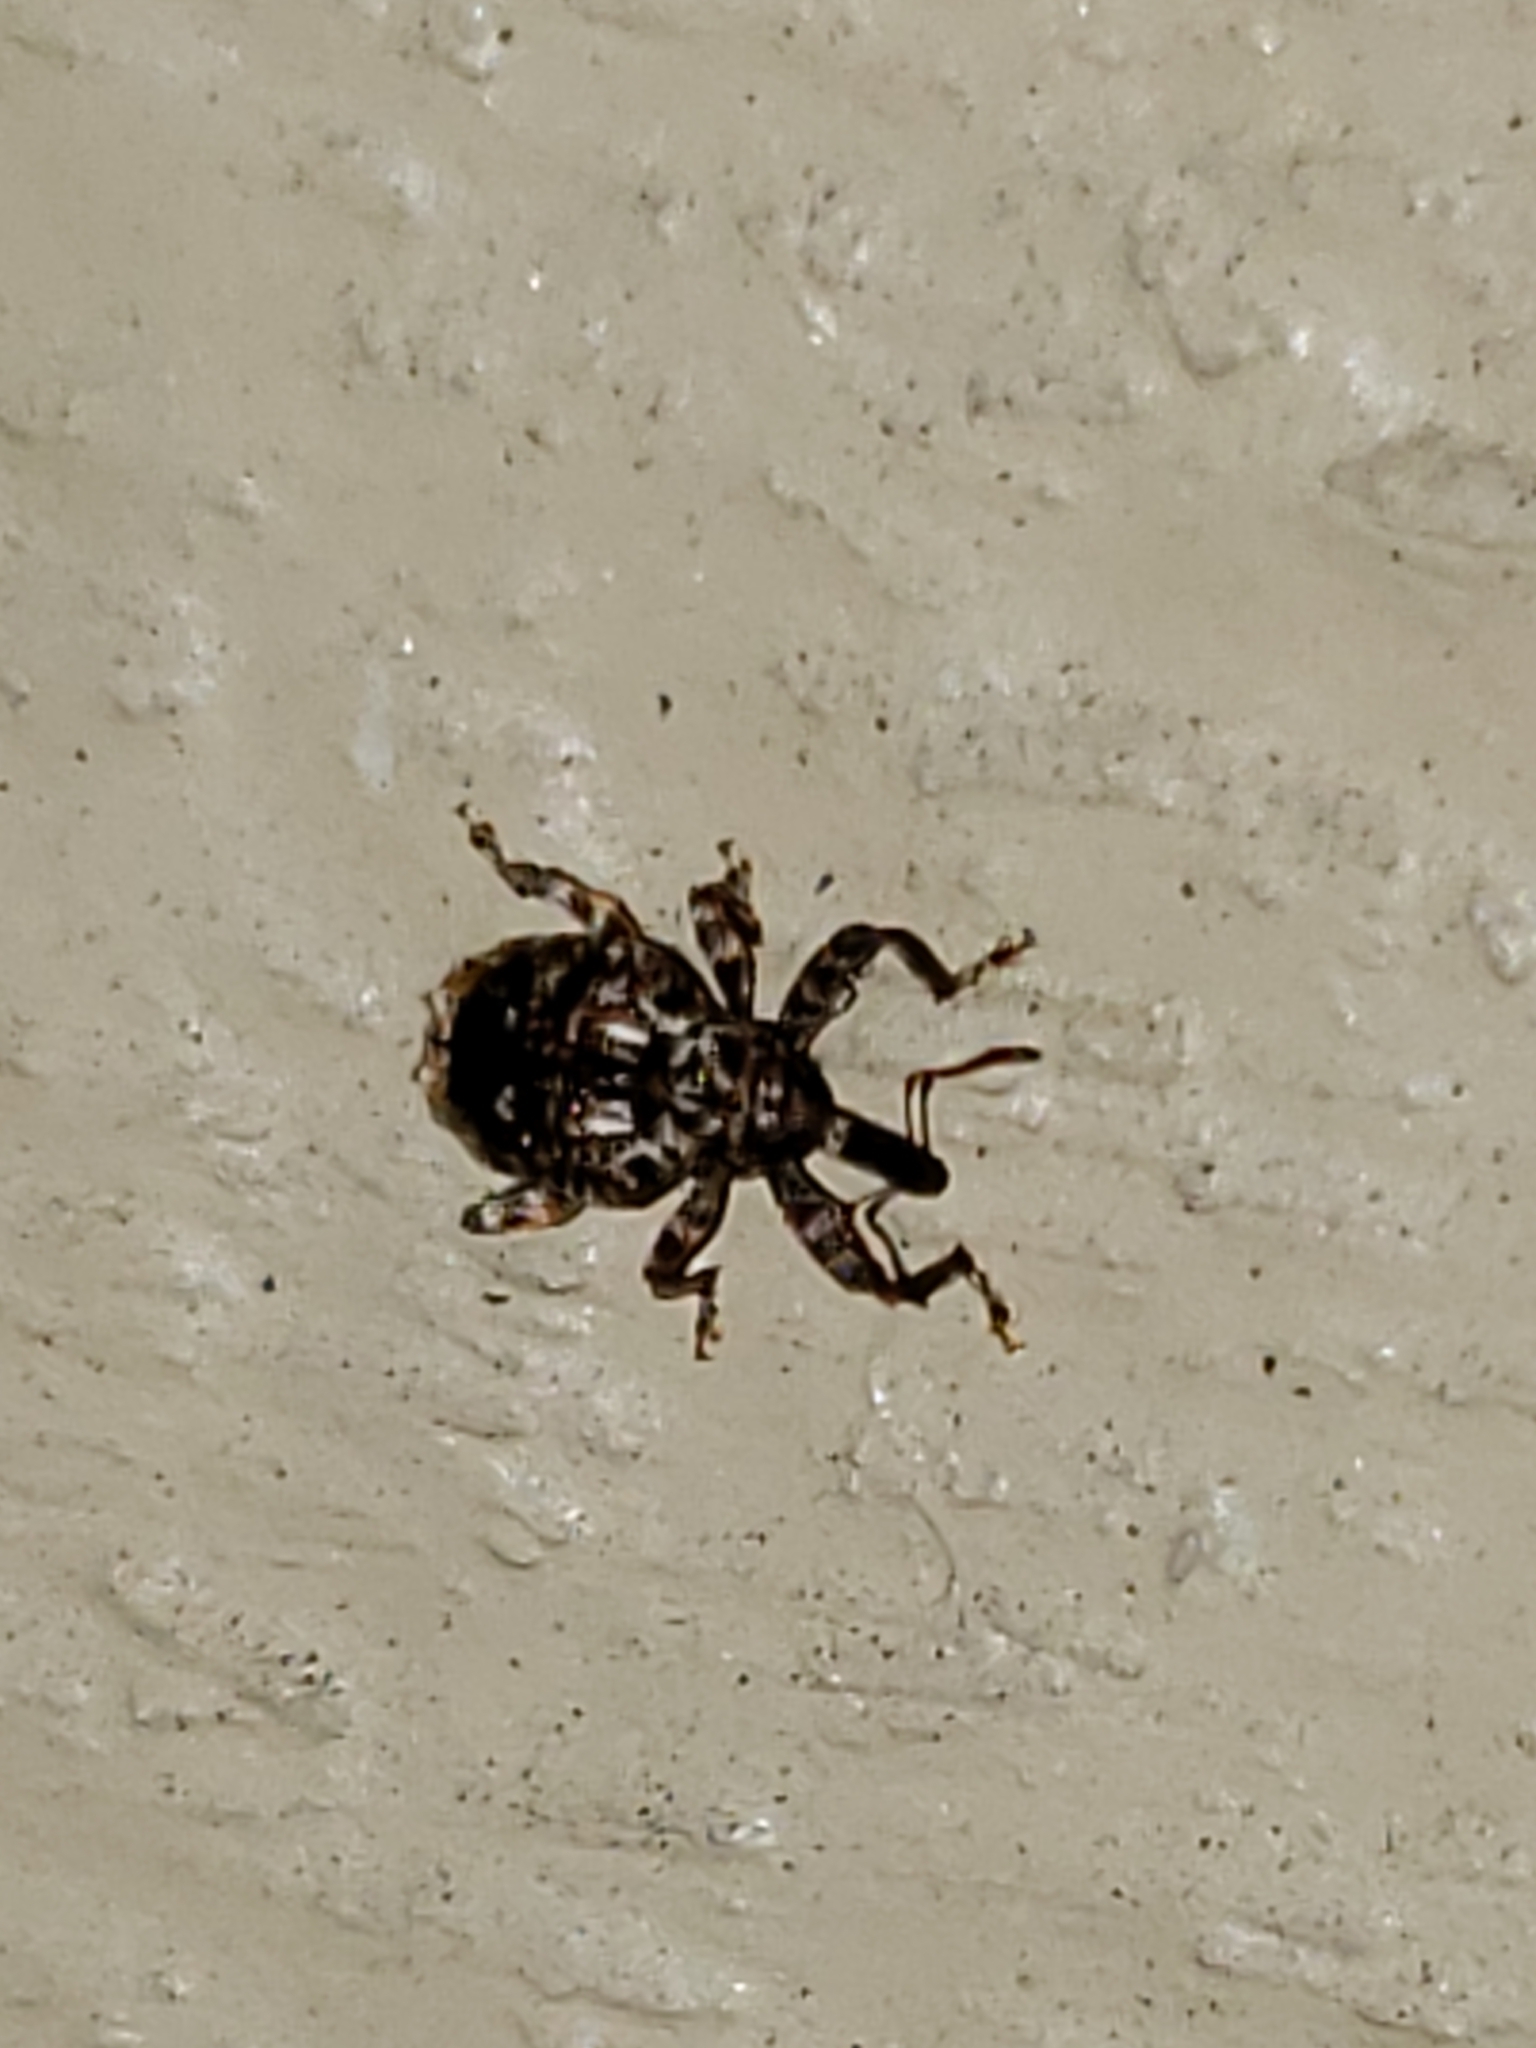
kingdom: Animalia
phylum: Arthropoda
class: Insecta
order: Coleoptera
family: Curculionidae
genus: Conotrachelus
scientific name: Conotrachelus nenuphar
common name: Plum curculio
